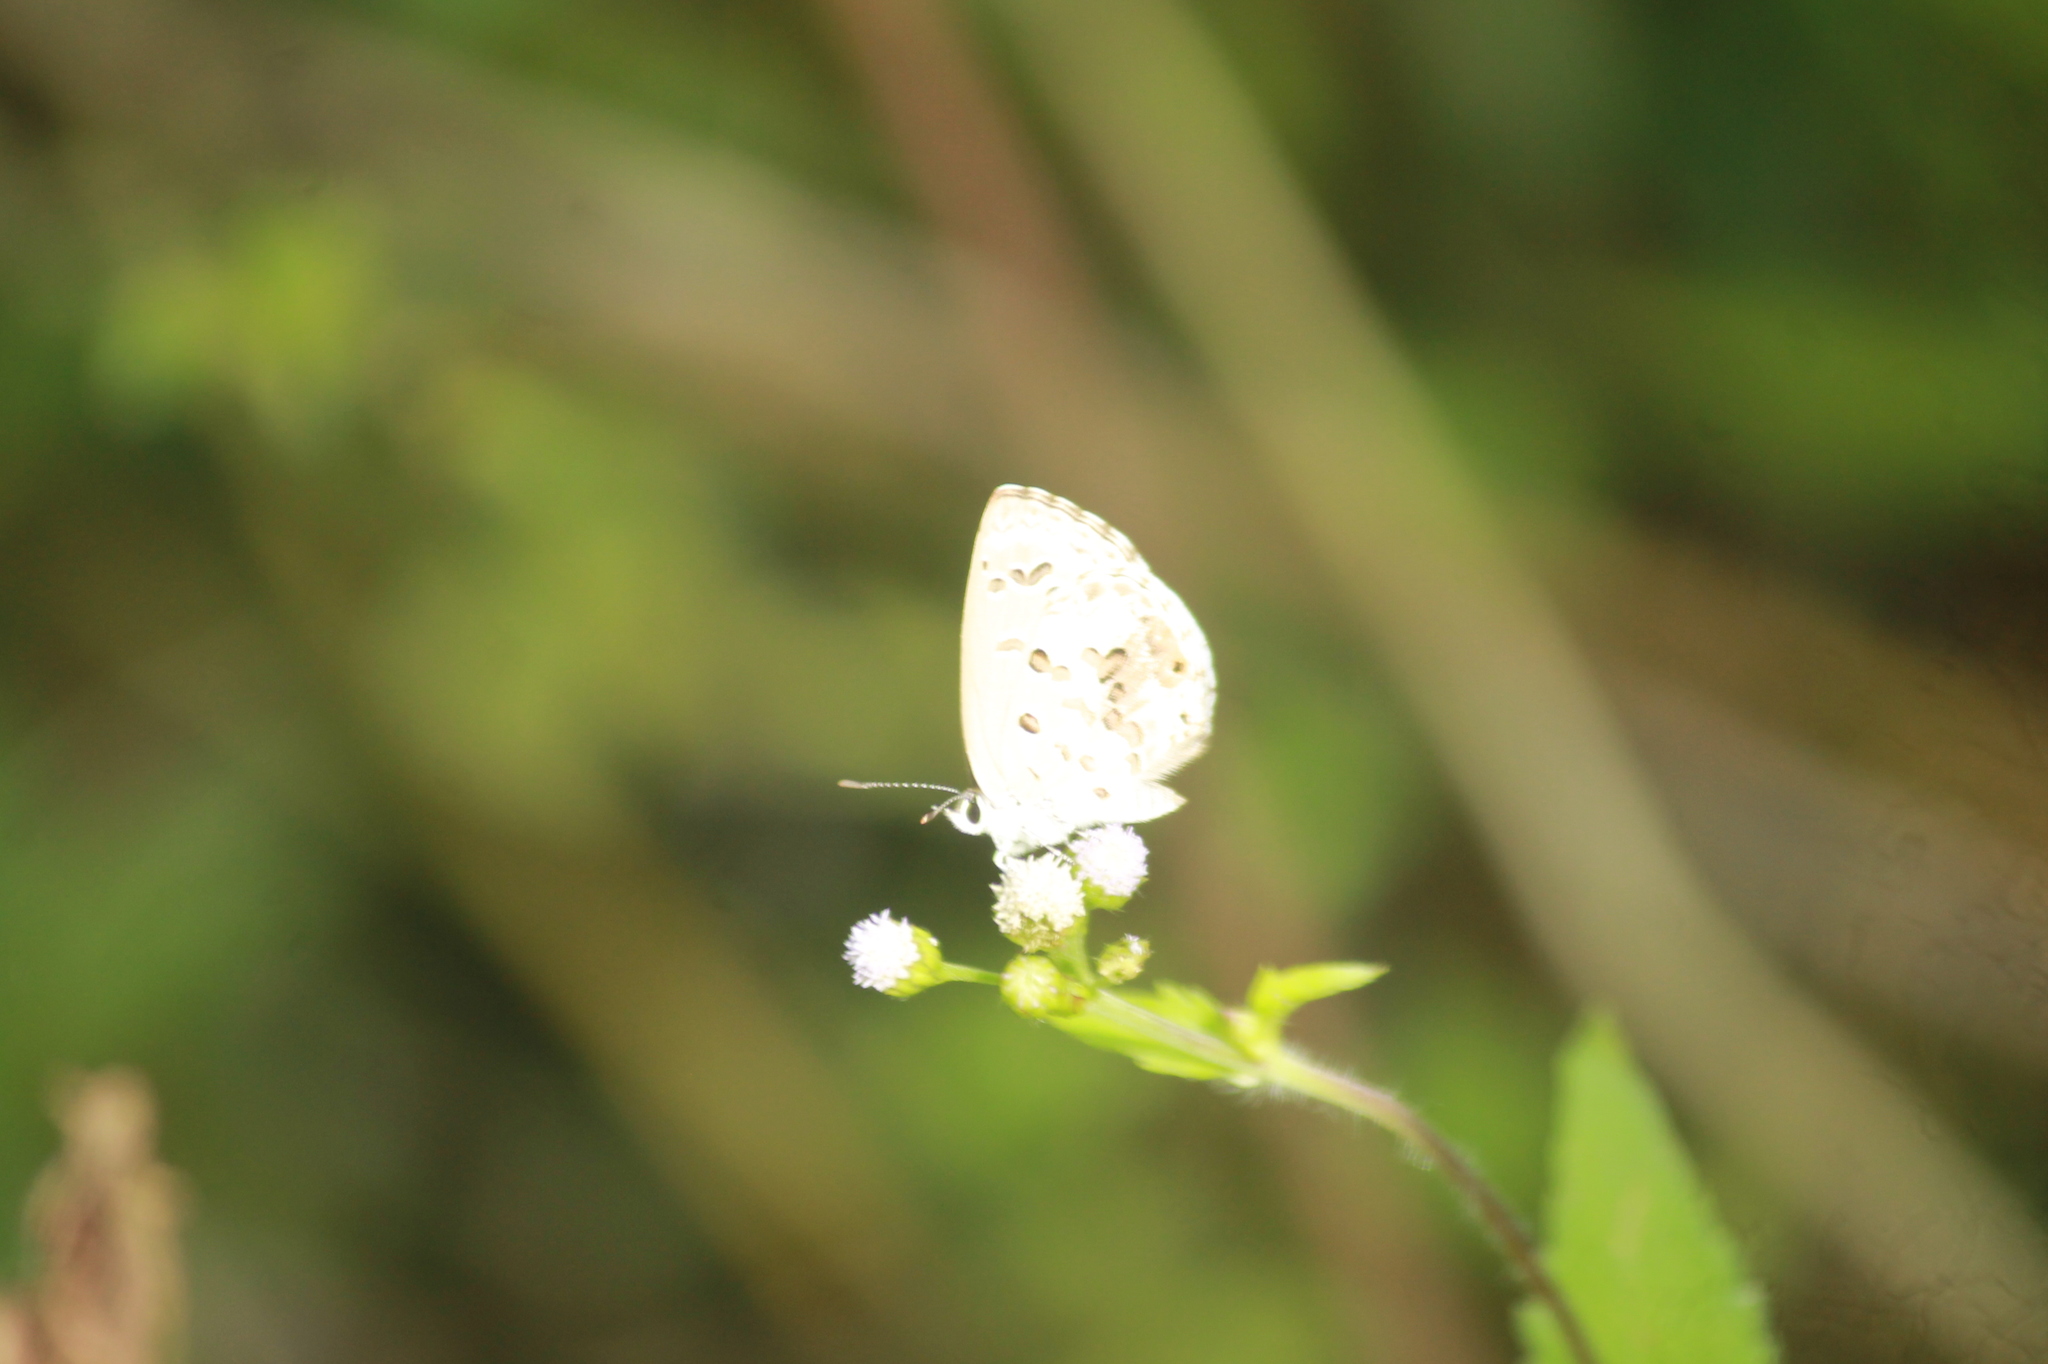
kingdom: Animalia
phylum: Arthropoda
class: Insecta
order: Lepidoptera
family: Lycaenidae
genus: Chilades
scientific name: Chilades laius
